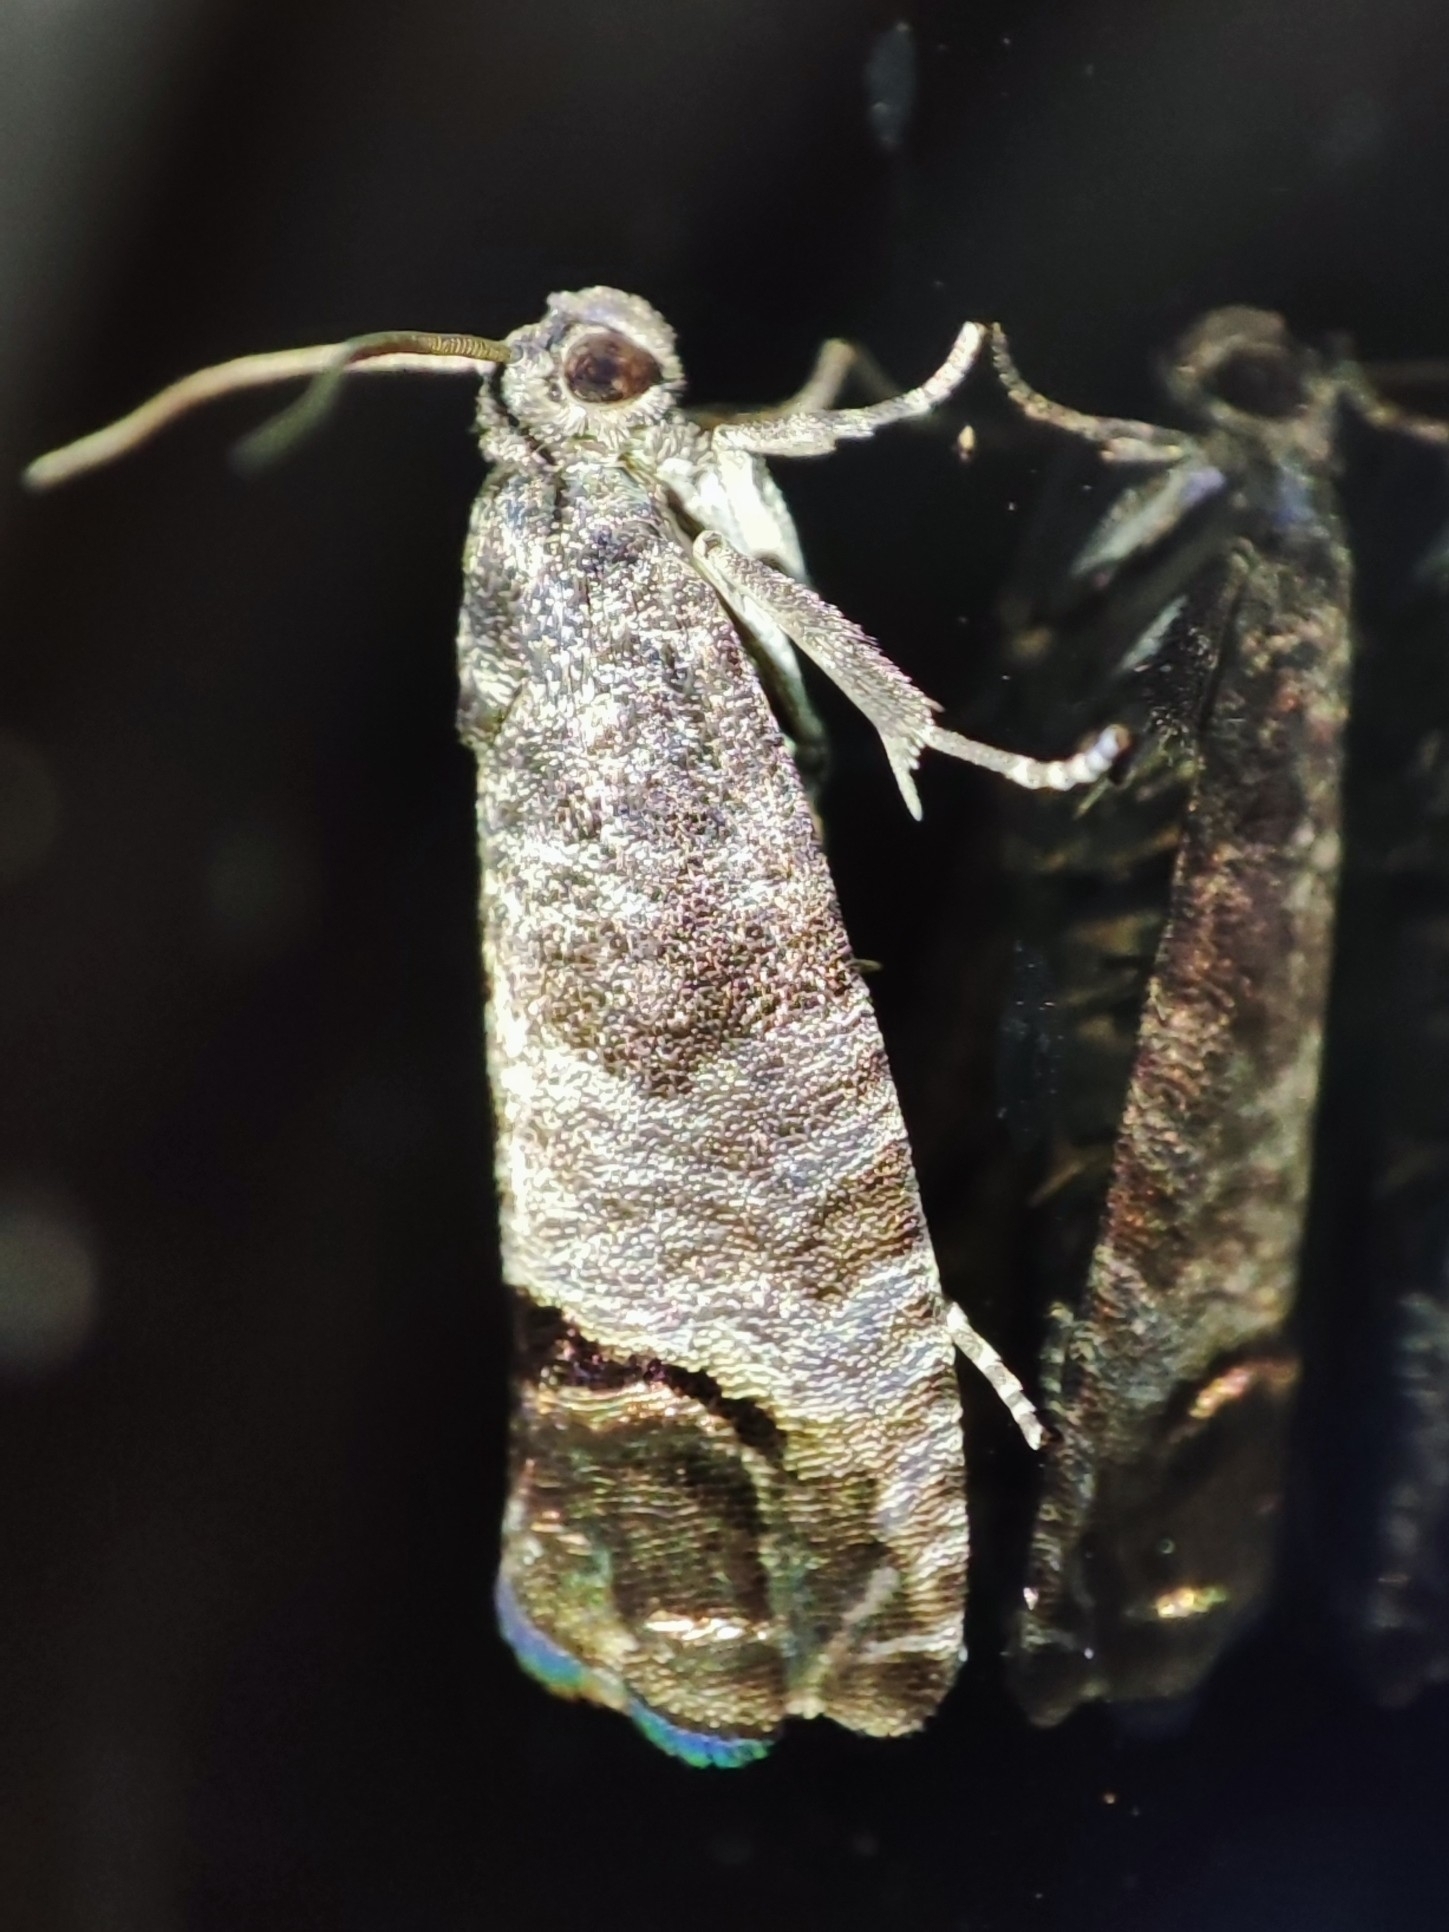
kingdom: Animalia
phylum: Arthropoda
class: Insecta
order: Lepidoptera
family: Tortricidae
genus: Cydia
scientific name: Cydia pomonella
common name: Codling moth
